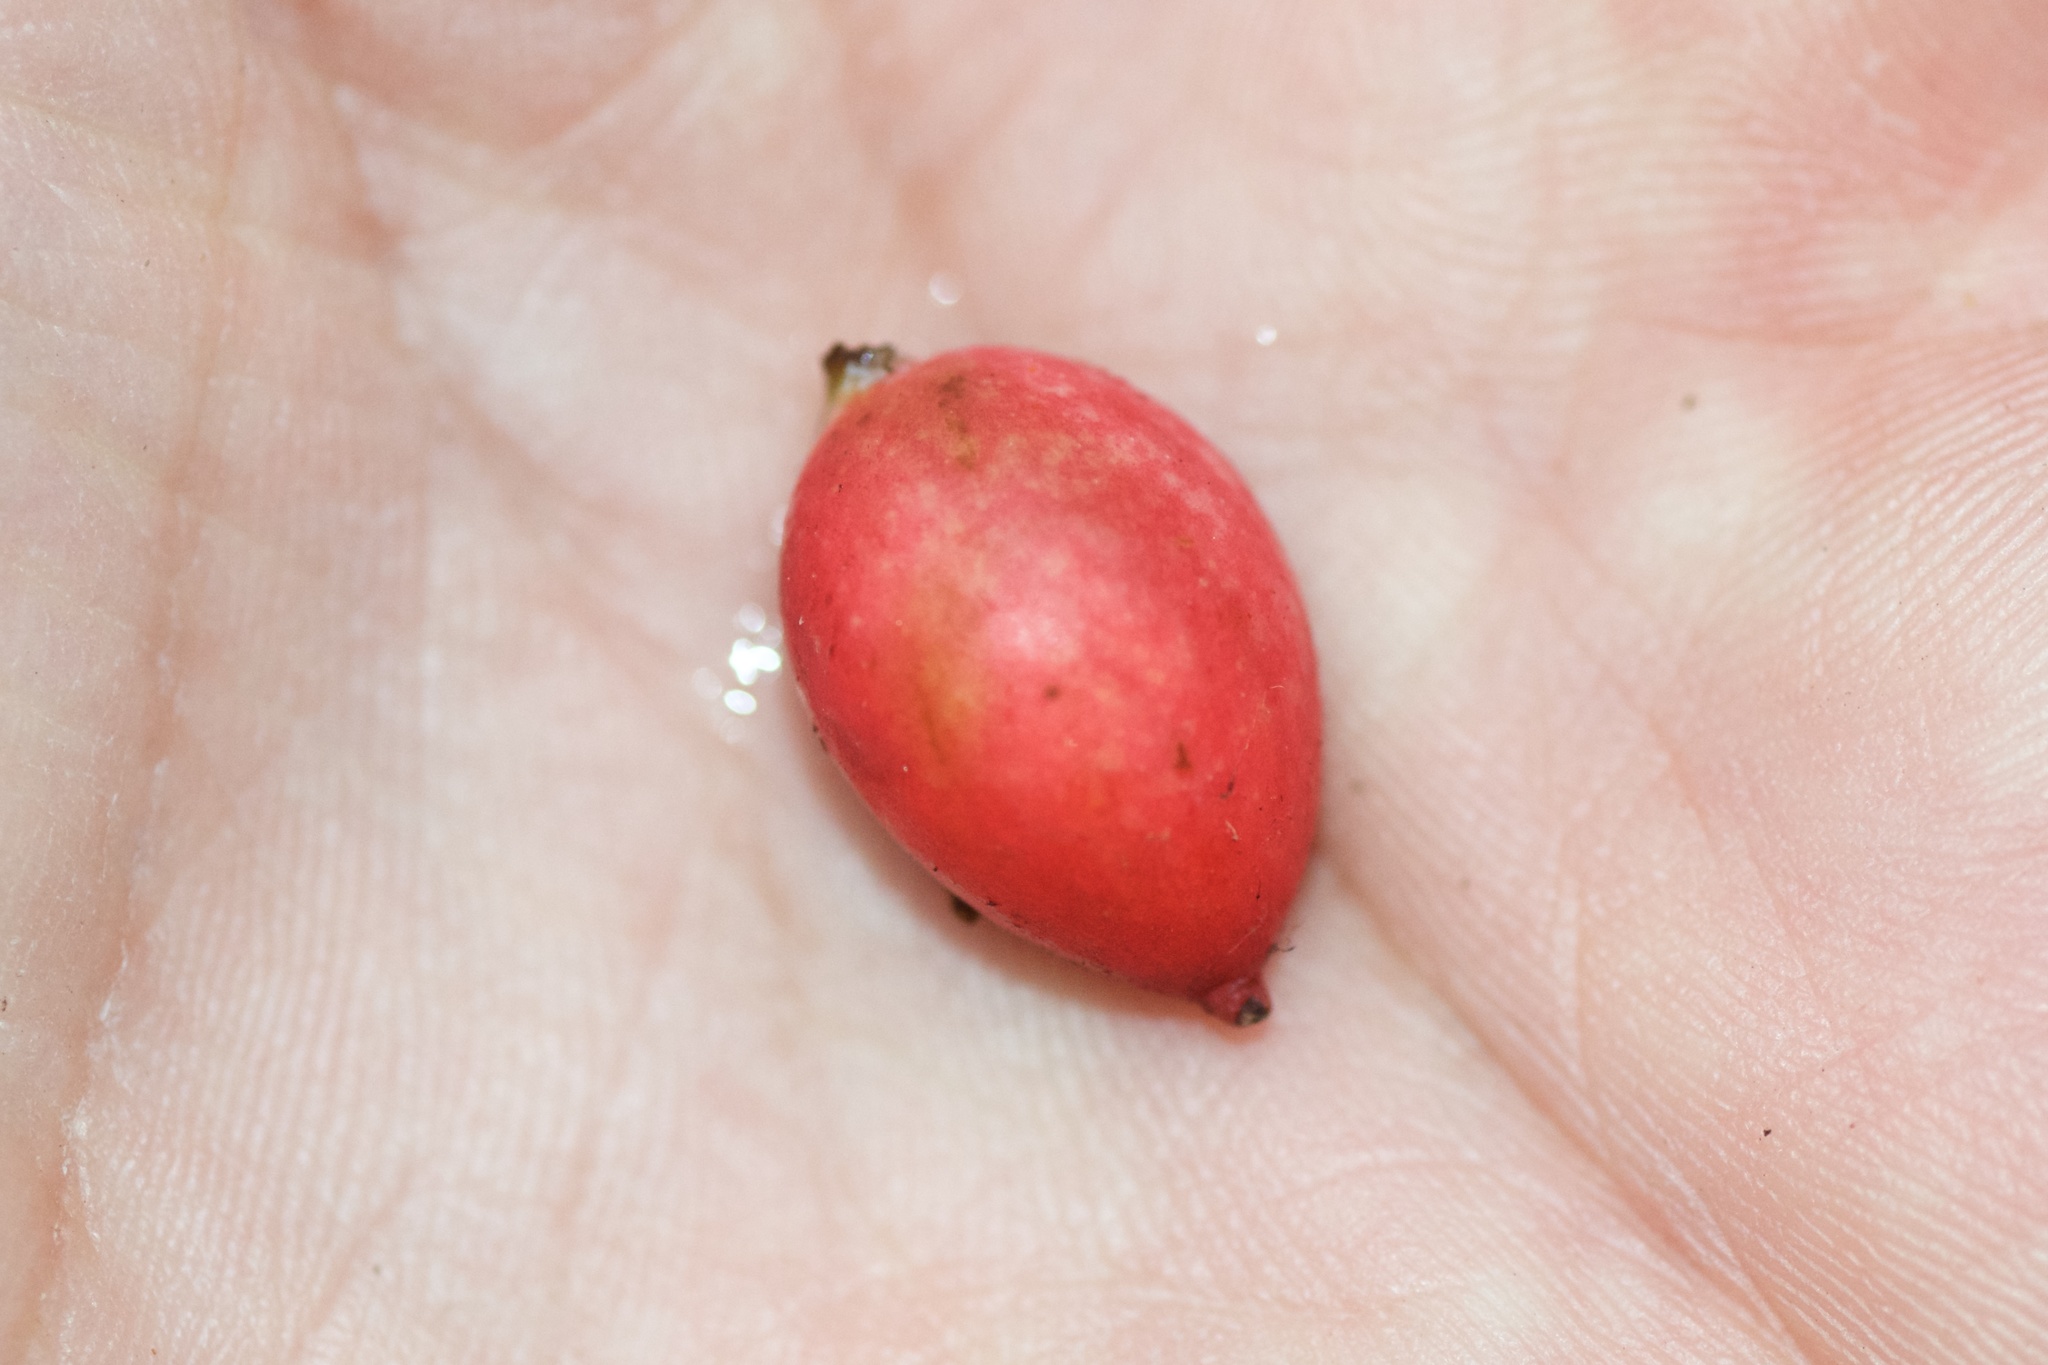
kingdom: Plantae
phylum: Tracheophyta
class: Pinopsida
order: Pinales
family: Podocarpaceae
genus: Prumnopitys
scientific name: Prumnopitys ferruginea
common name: Brown pine
